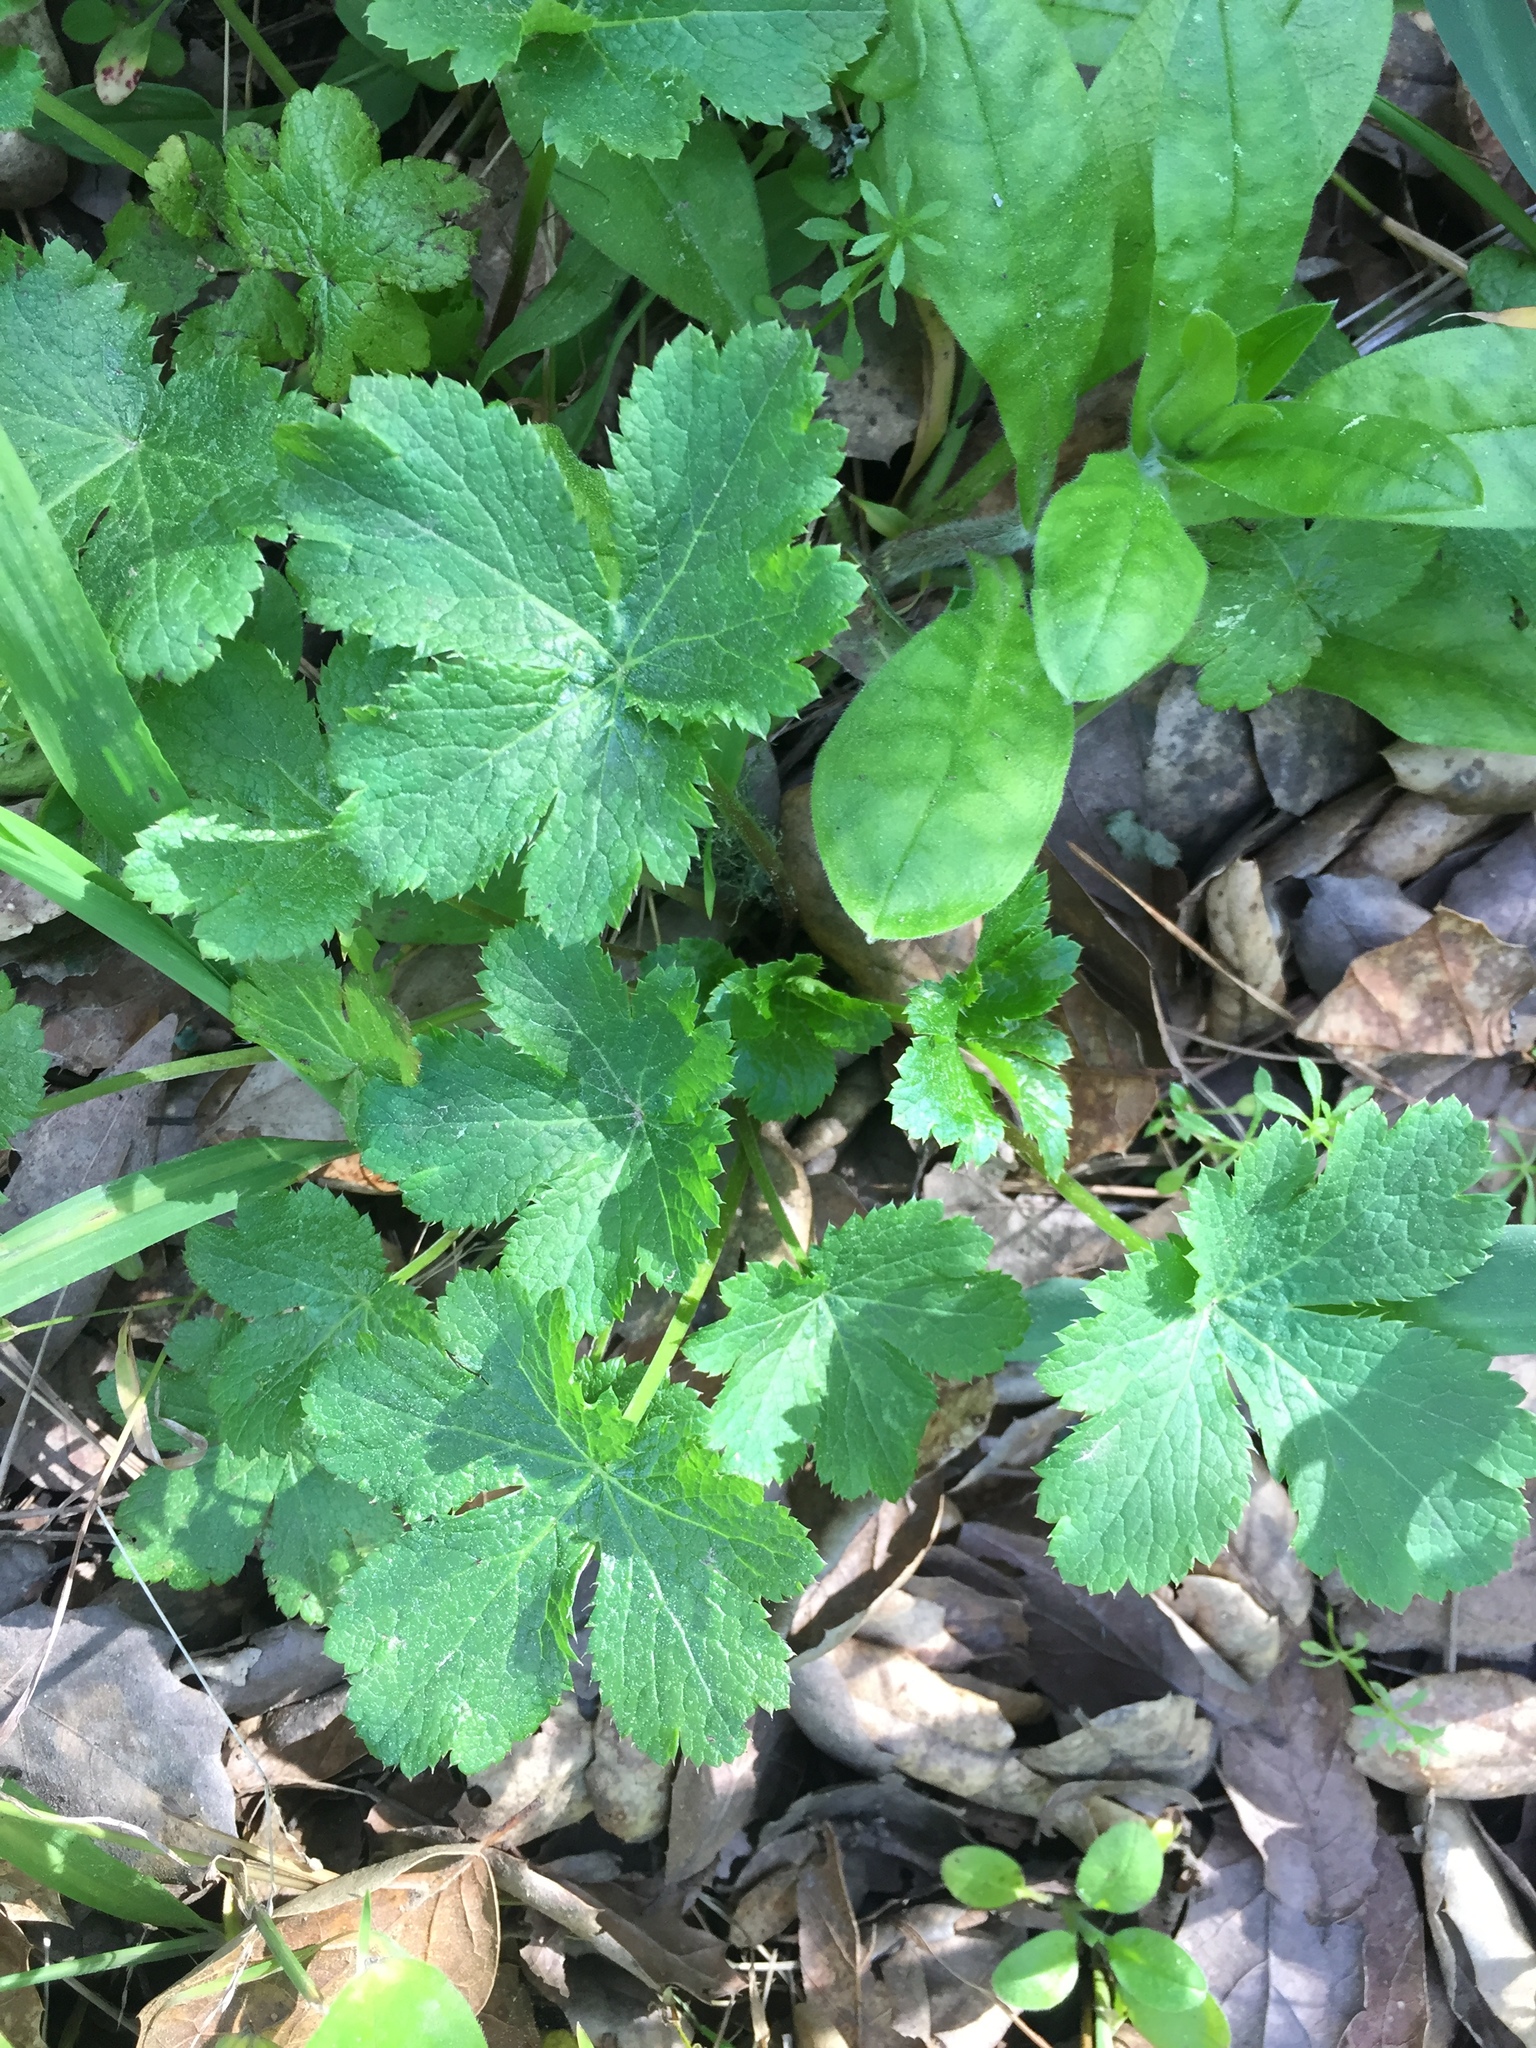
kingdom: Plantae
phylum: Tracheophyta
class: Magnoliopsida
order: Apiales
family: Apiaceae
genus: Sanicula
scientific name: Sanicula crassicaulis
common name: Western snakeroot
